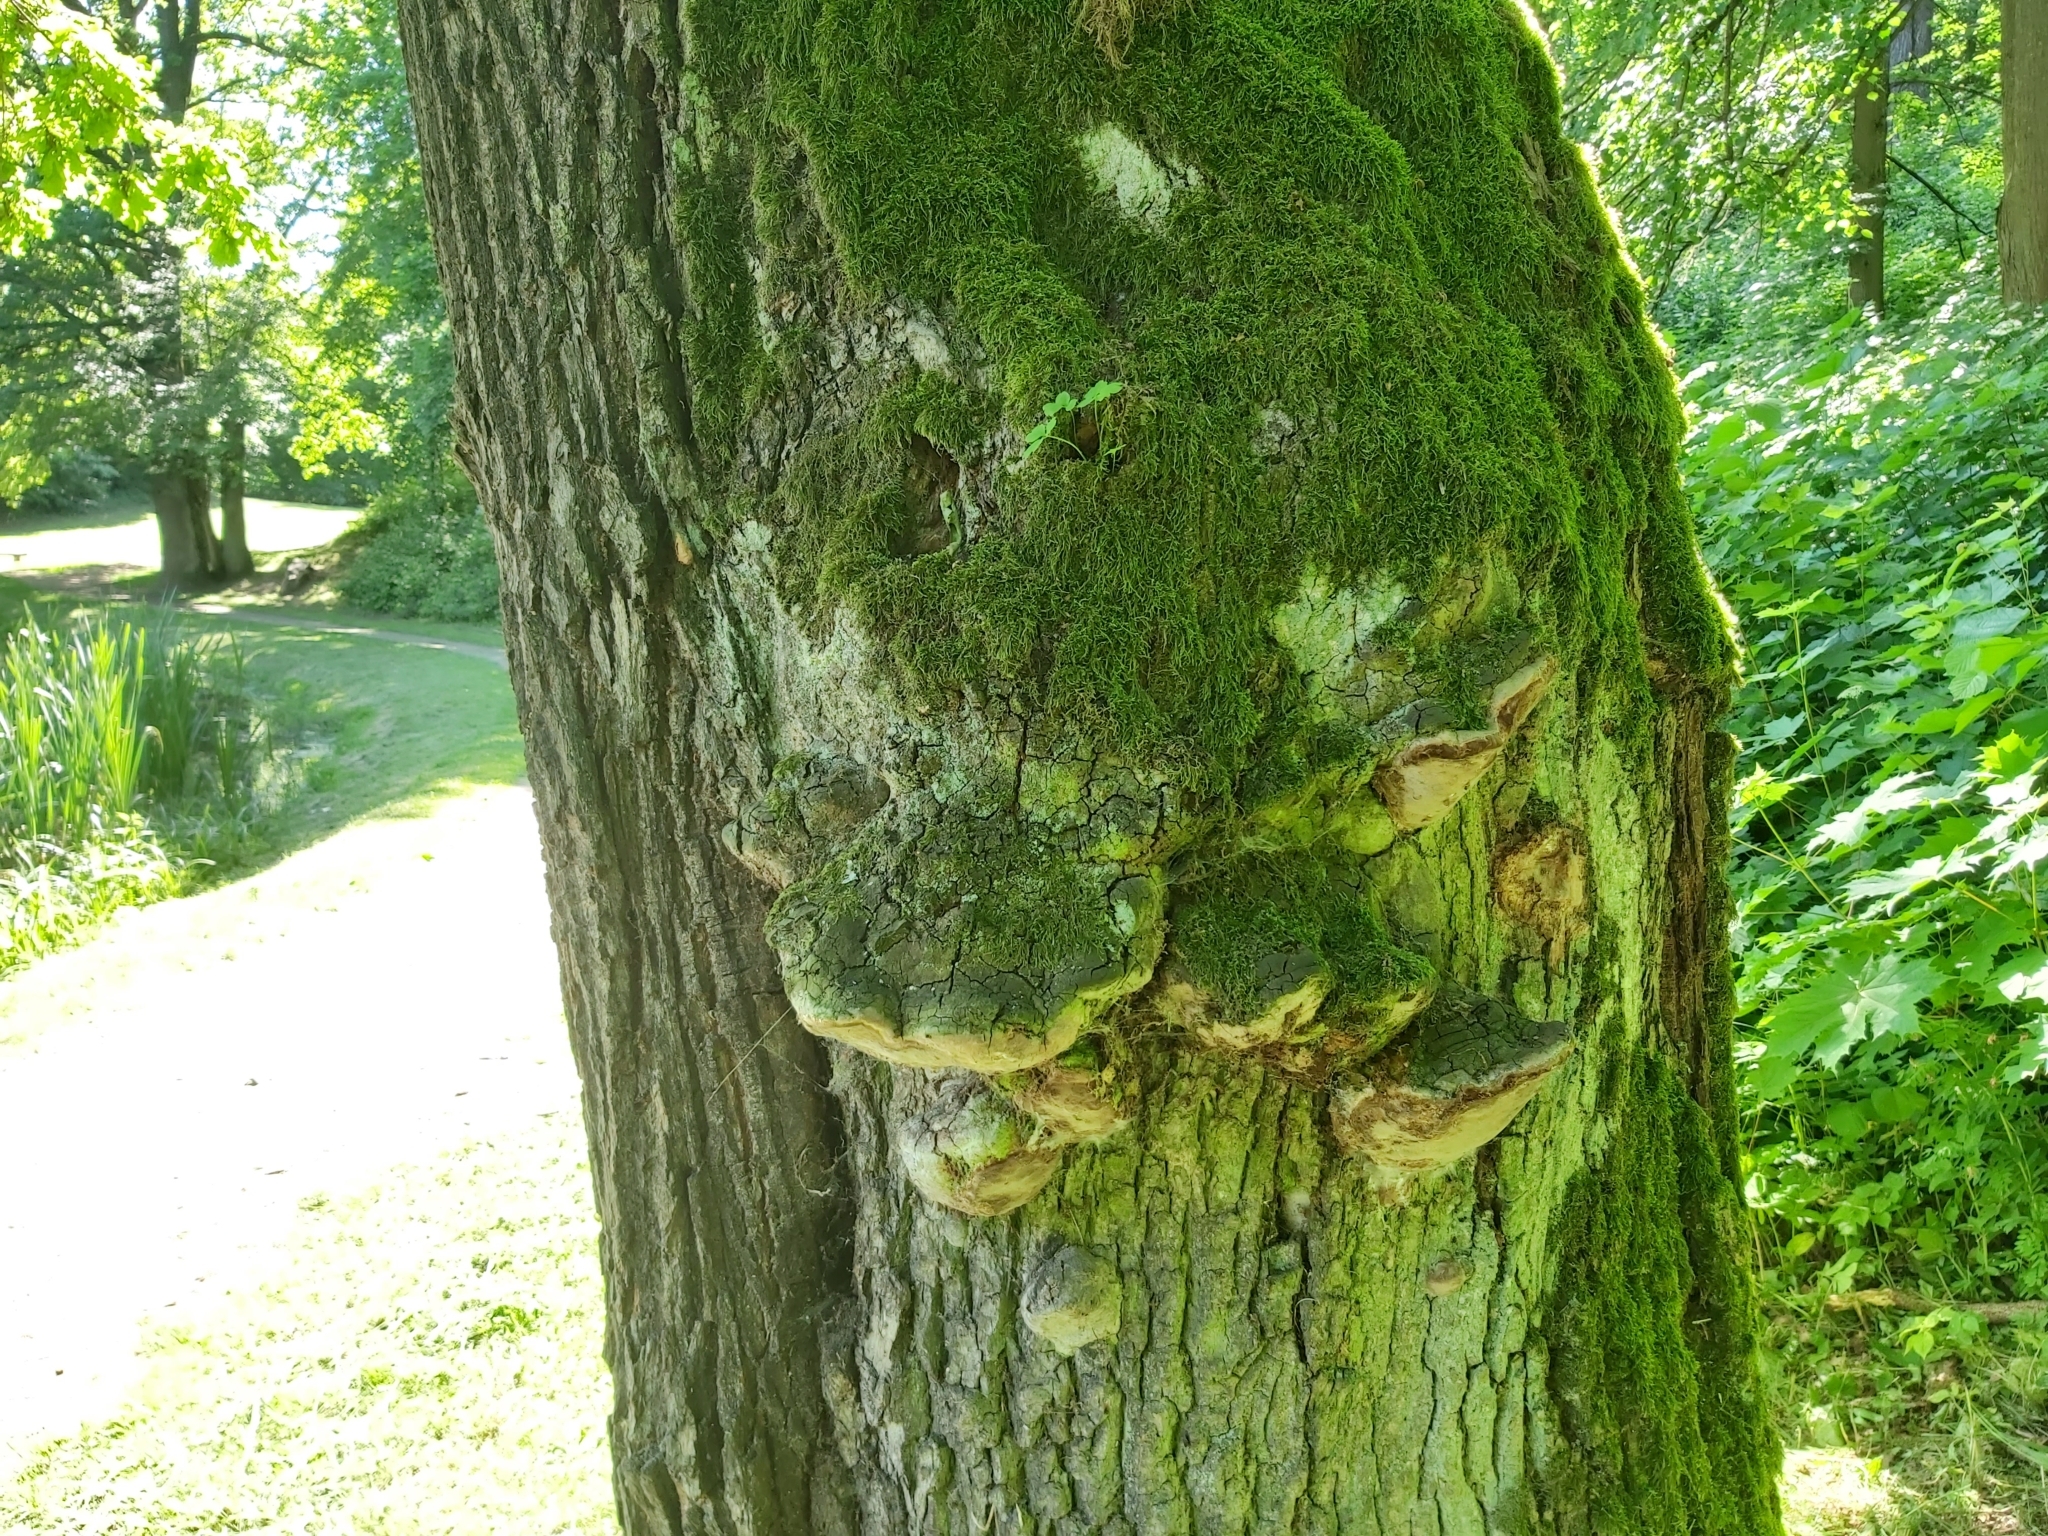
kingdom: Fungi
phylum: Basidiomycota
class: Agaricomycetes
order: Hymenochaetales
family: Hymenochaetaceae
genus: Fomitiporia
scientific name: Fomitiporia robusta
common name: Robust bracket
